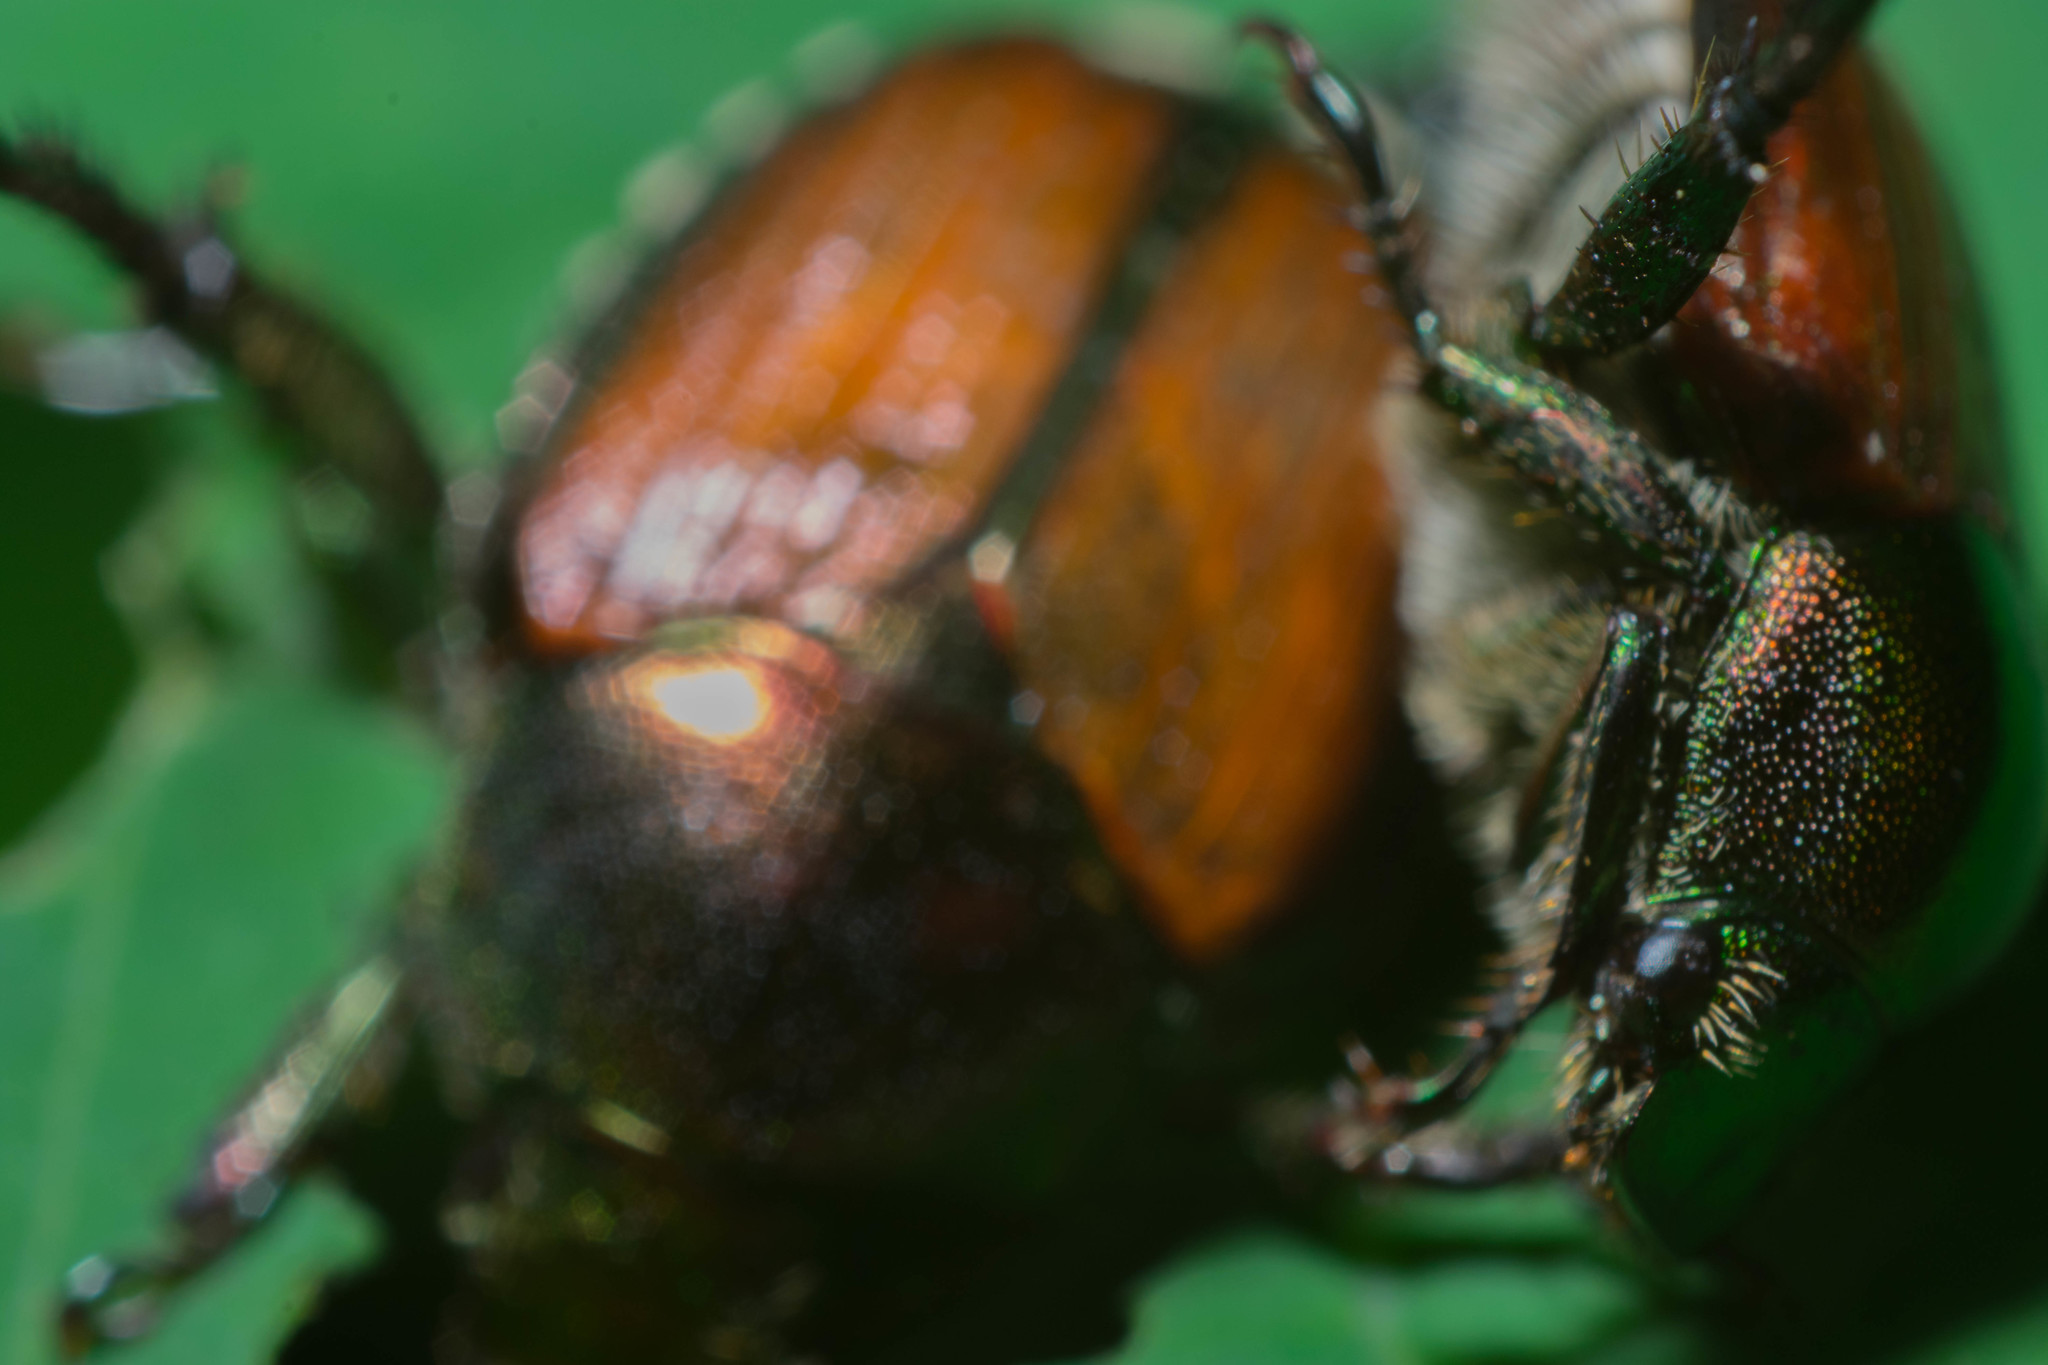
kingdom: Animalia
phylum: Arthropoda
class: Insecta
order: Coleoptera
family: Scarabaeidae
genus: Popillia
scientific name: Popillia japonica
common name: Japanese beetle
